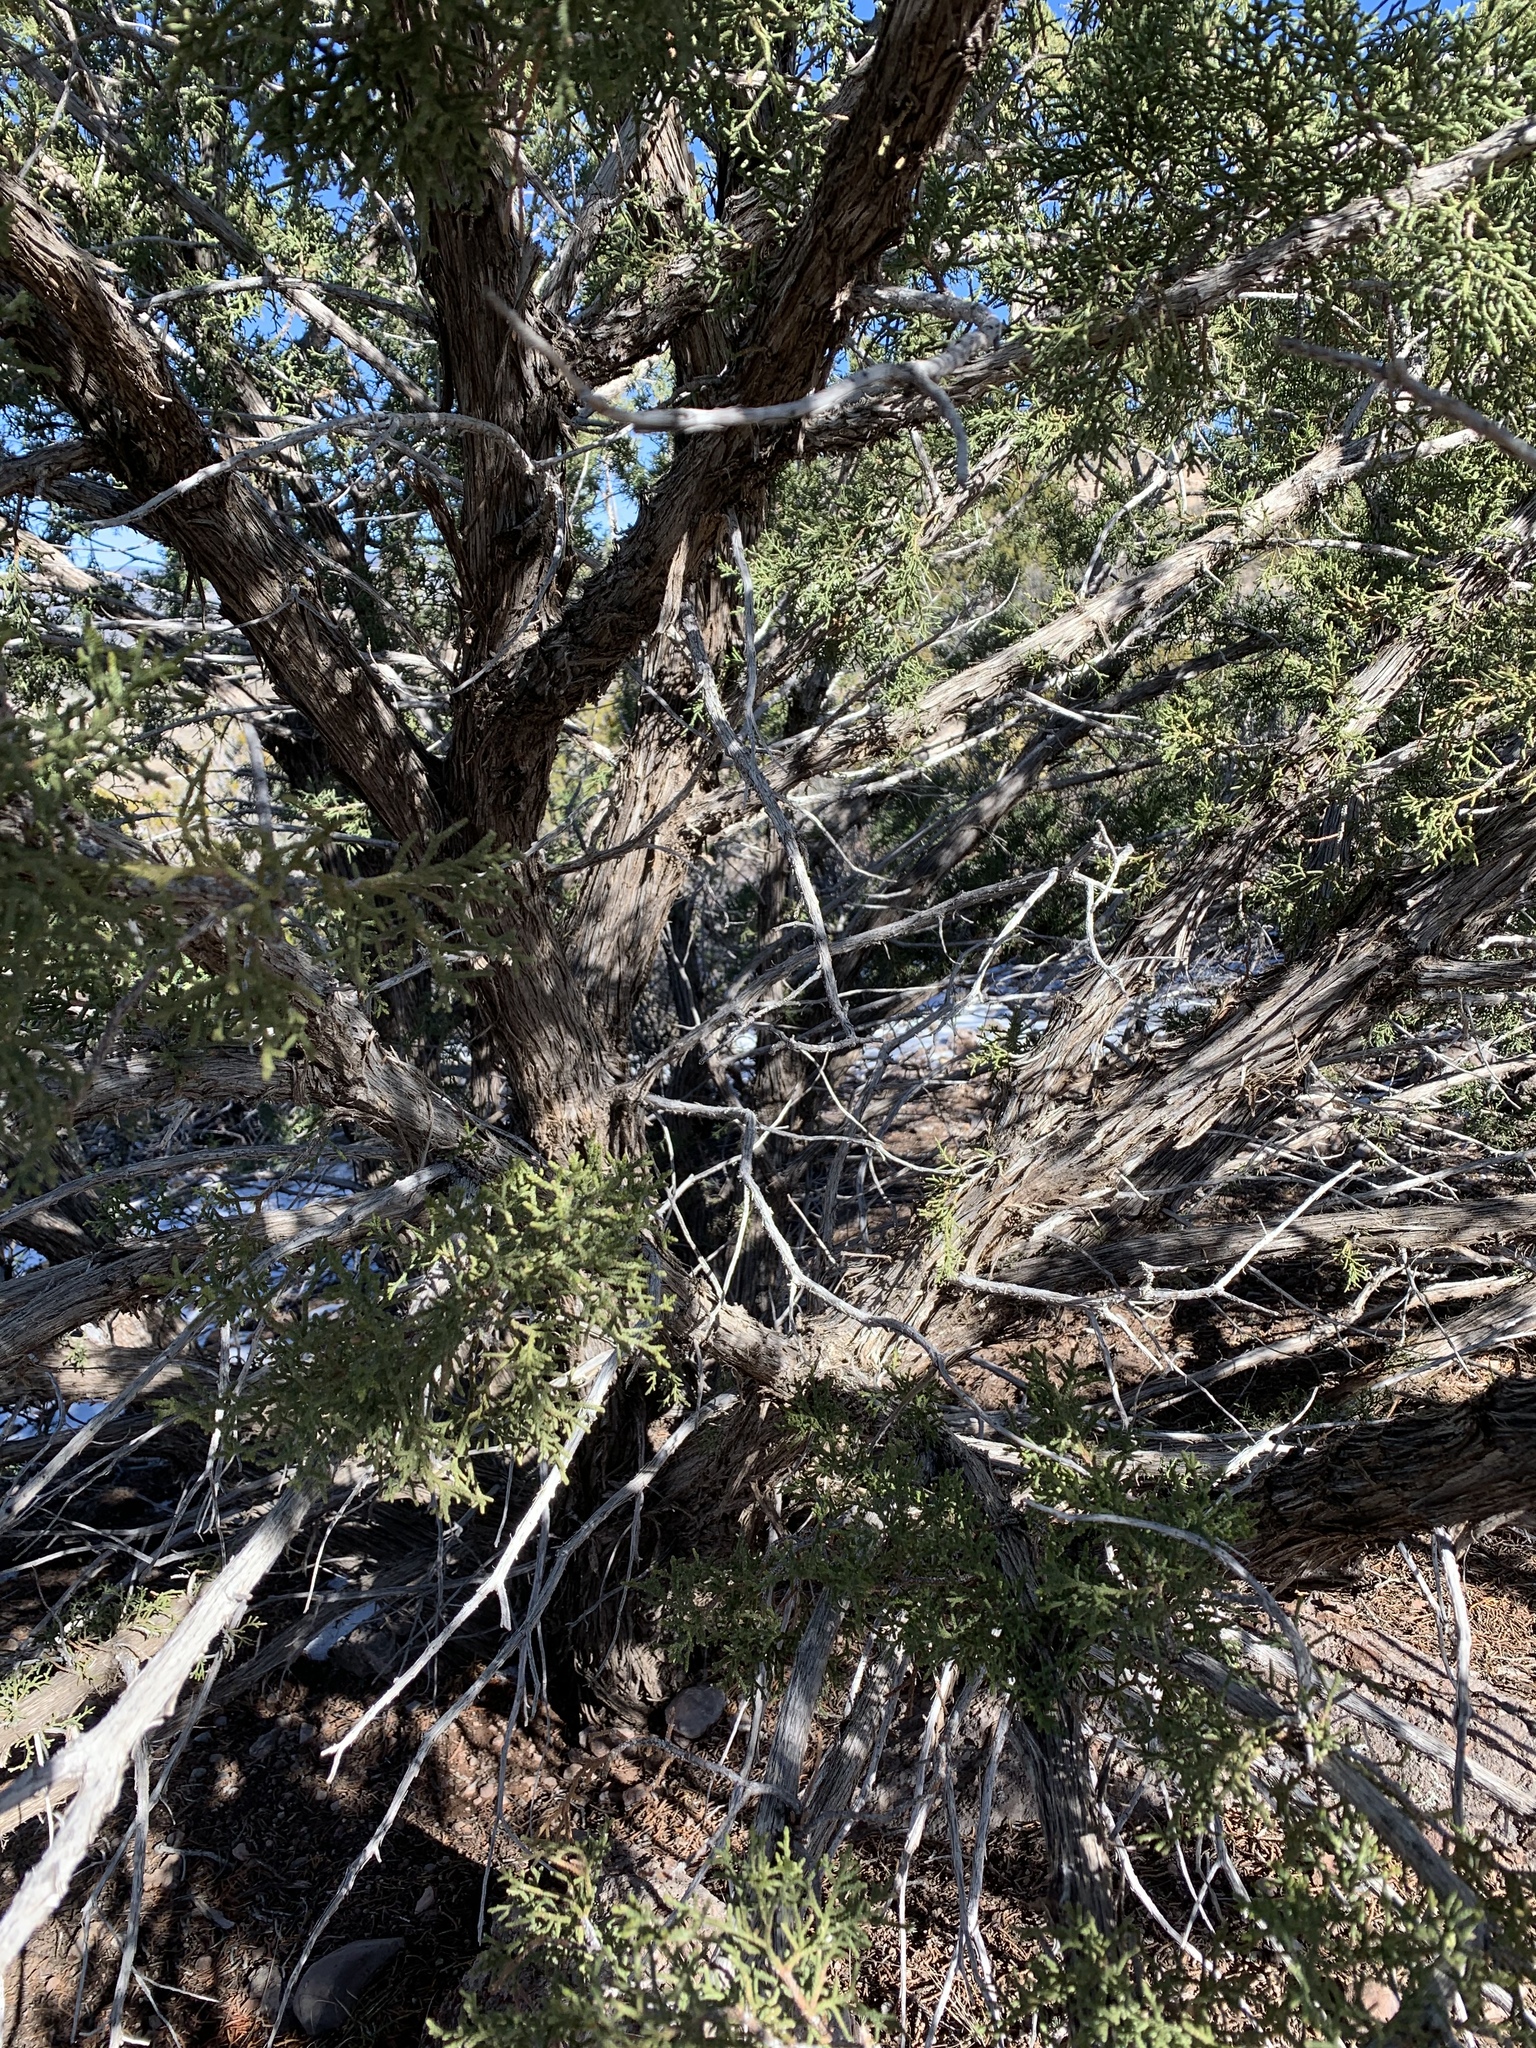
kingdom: Plantae
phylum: Tracheophyta
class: Pinopsida
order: Pinales
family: Cupressaceae
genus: Juniperus
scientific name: Juniperus monosperma
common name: One-seed juniper
